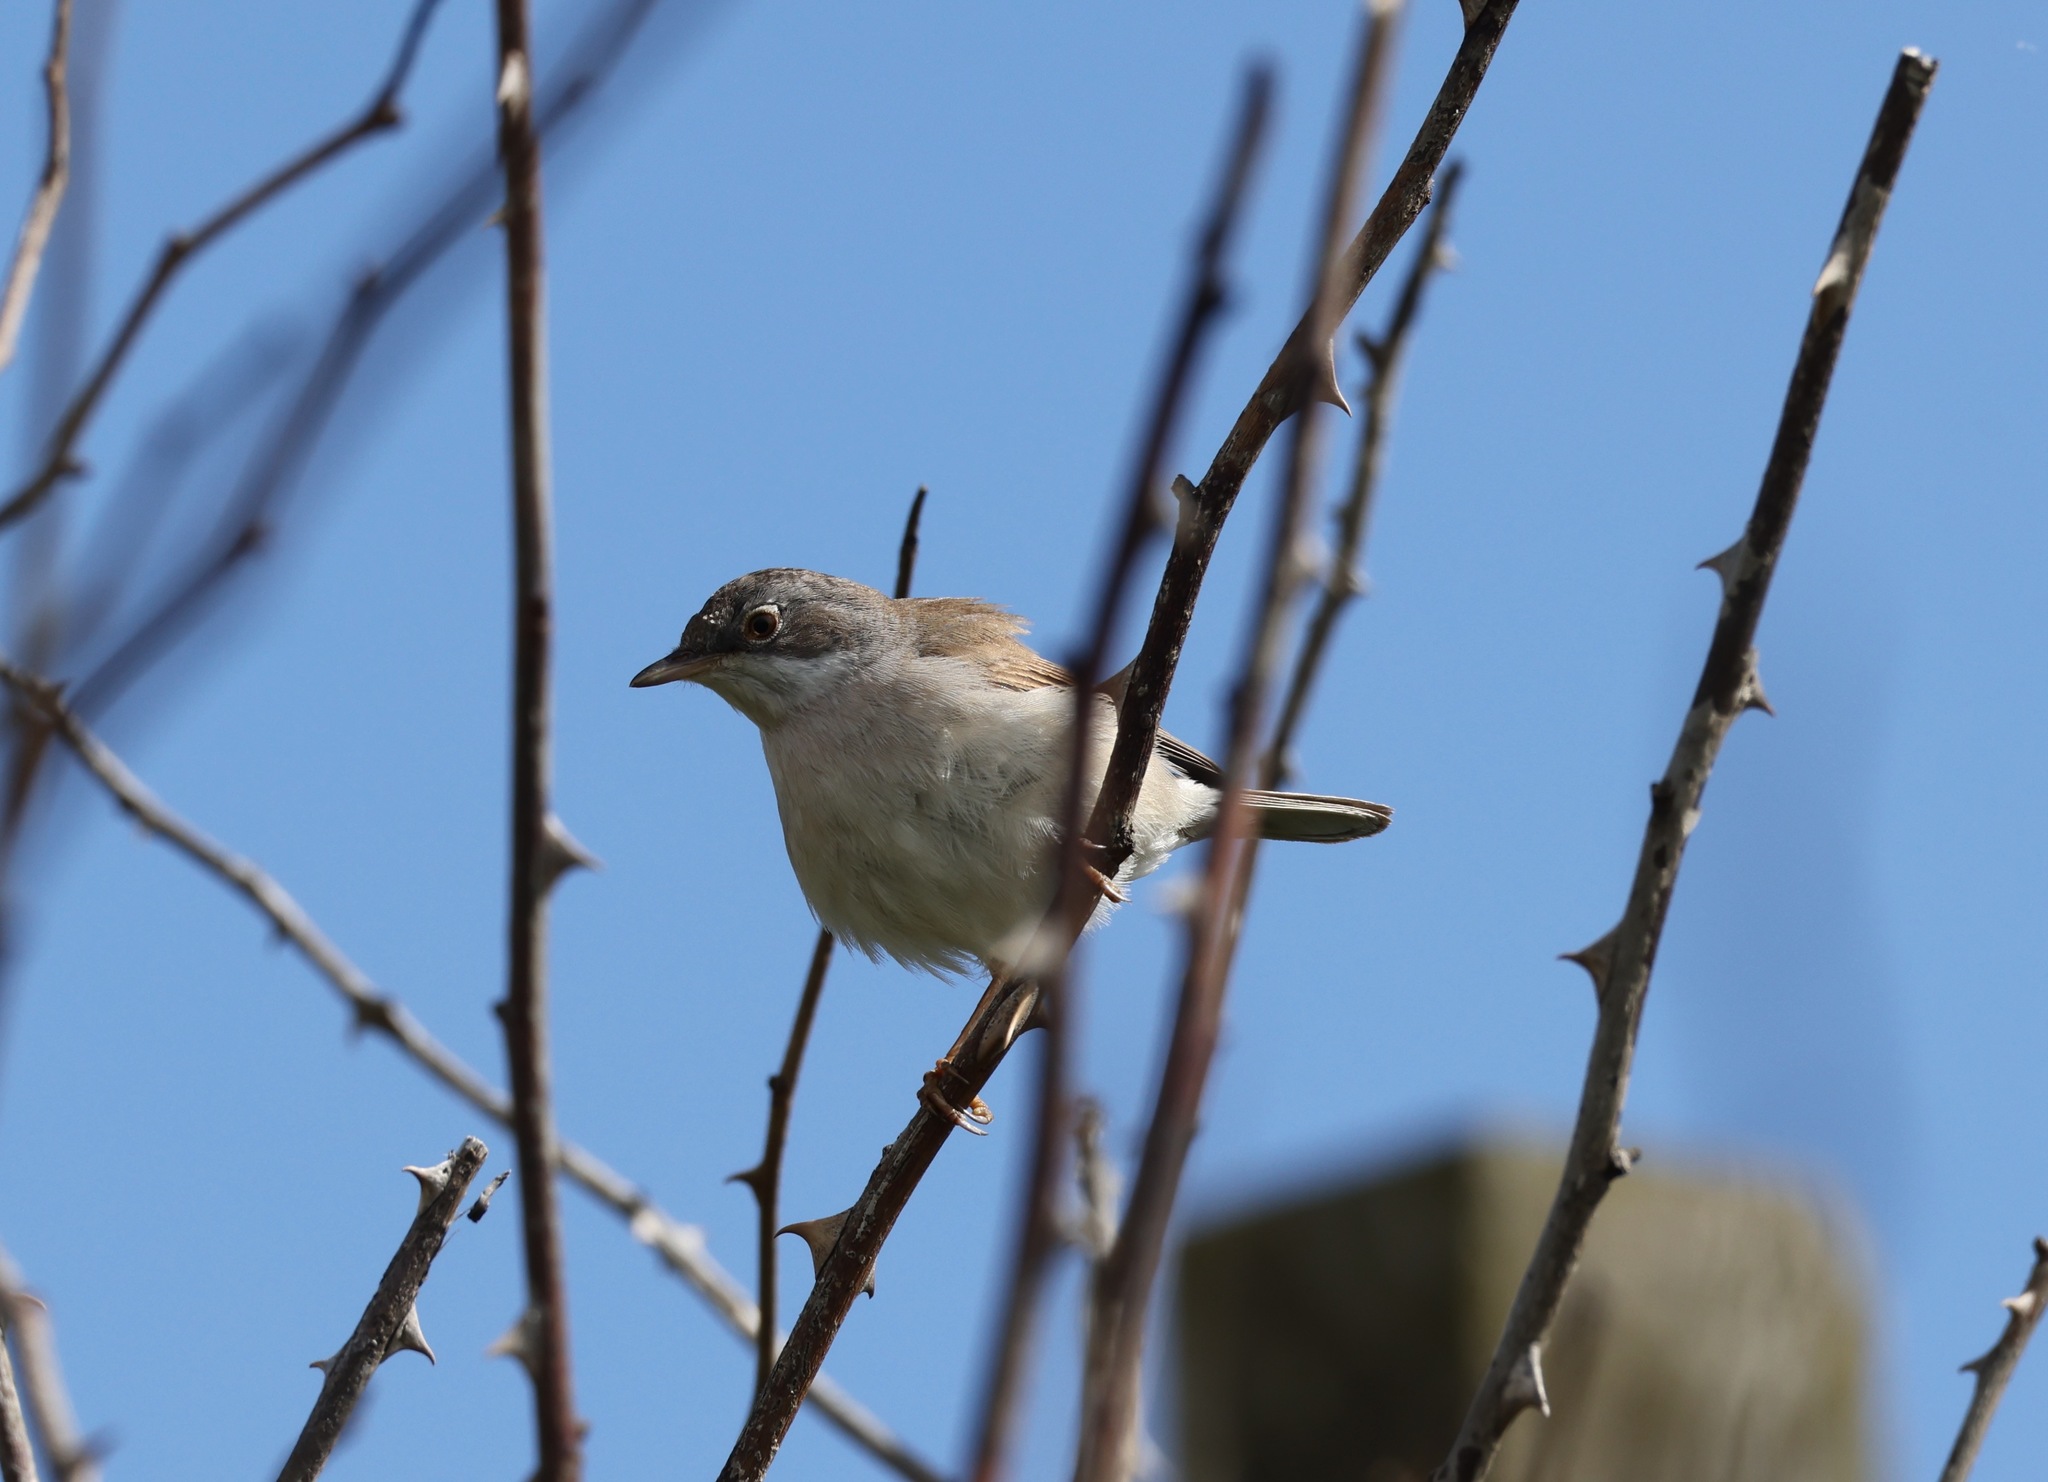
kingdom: Animalia
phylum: Chordata
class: Aves
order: Passeriformes
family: Sylviidae
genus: Sylvia
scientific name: Sylvia communis
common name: Common whitethroat
